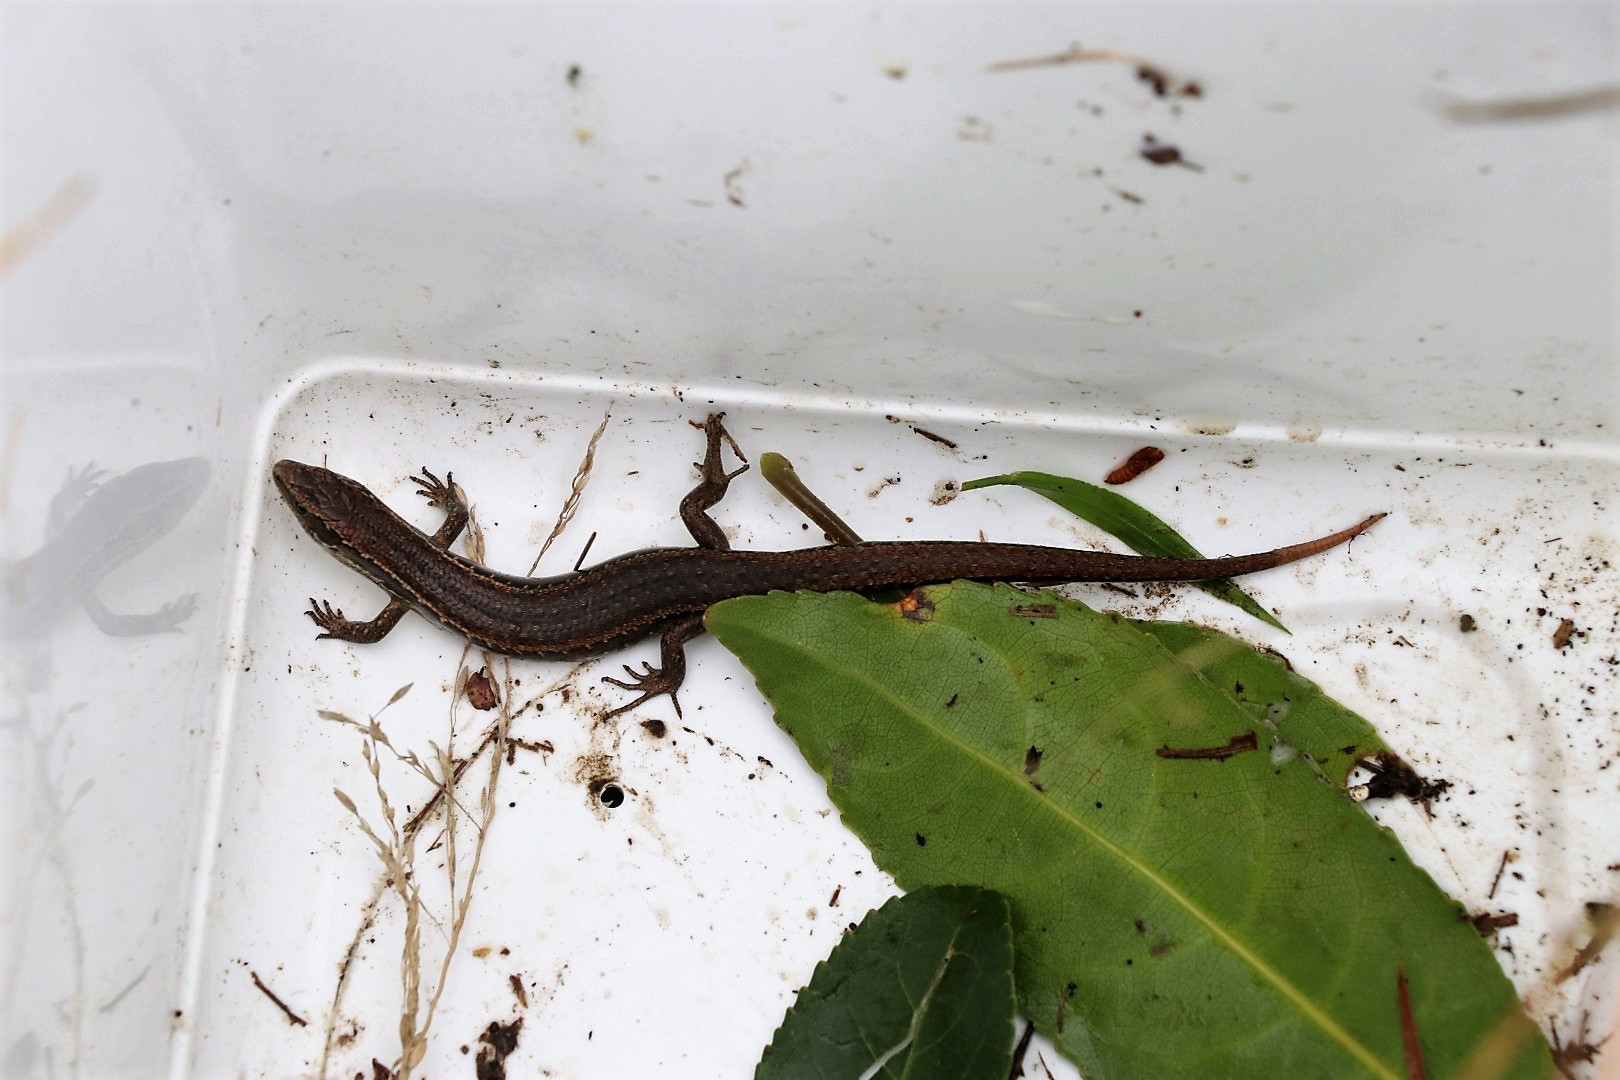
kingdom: Animalia
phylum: Chordata
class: Squamata
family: Scincidae
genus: Oligosoma
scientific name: Oligosoma polychroma
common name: Common new zealand skink
